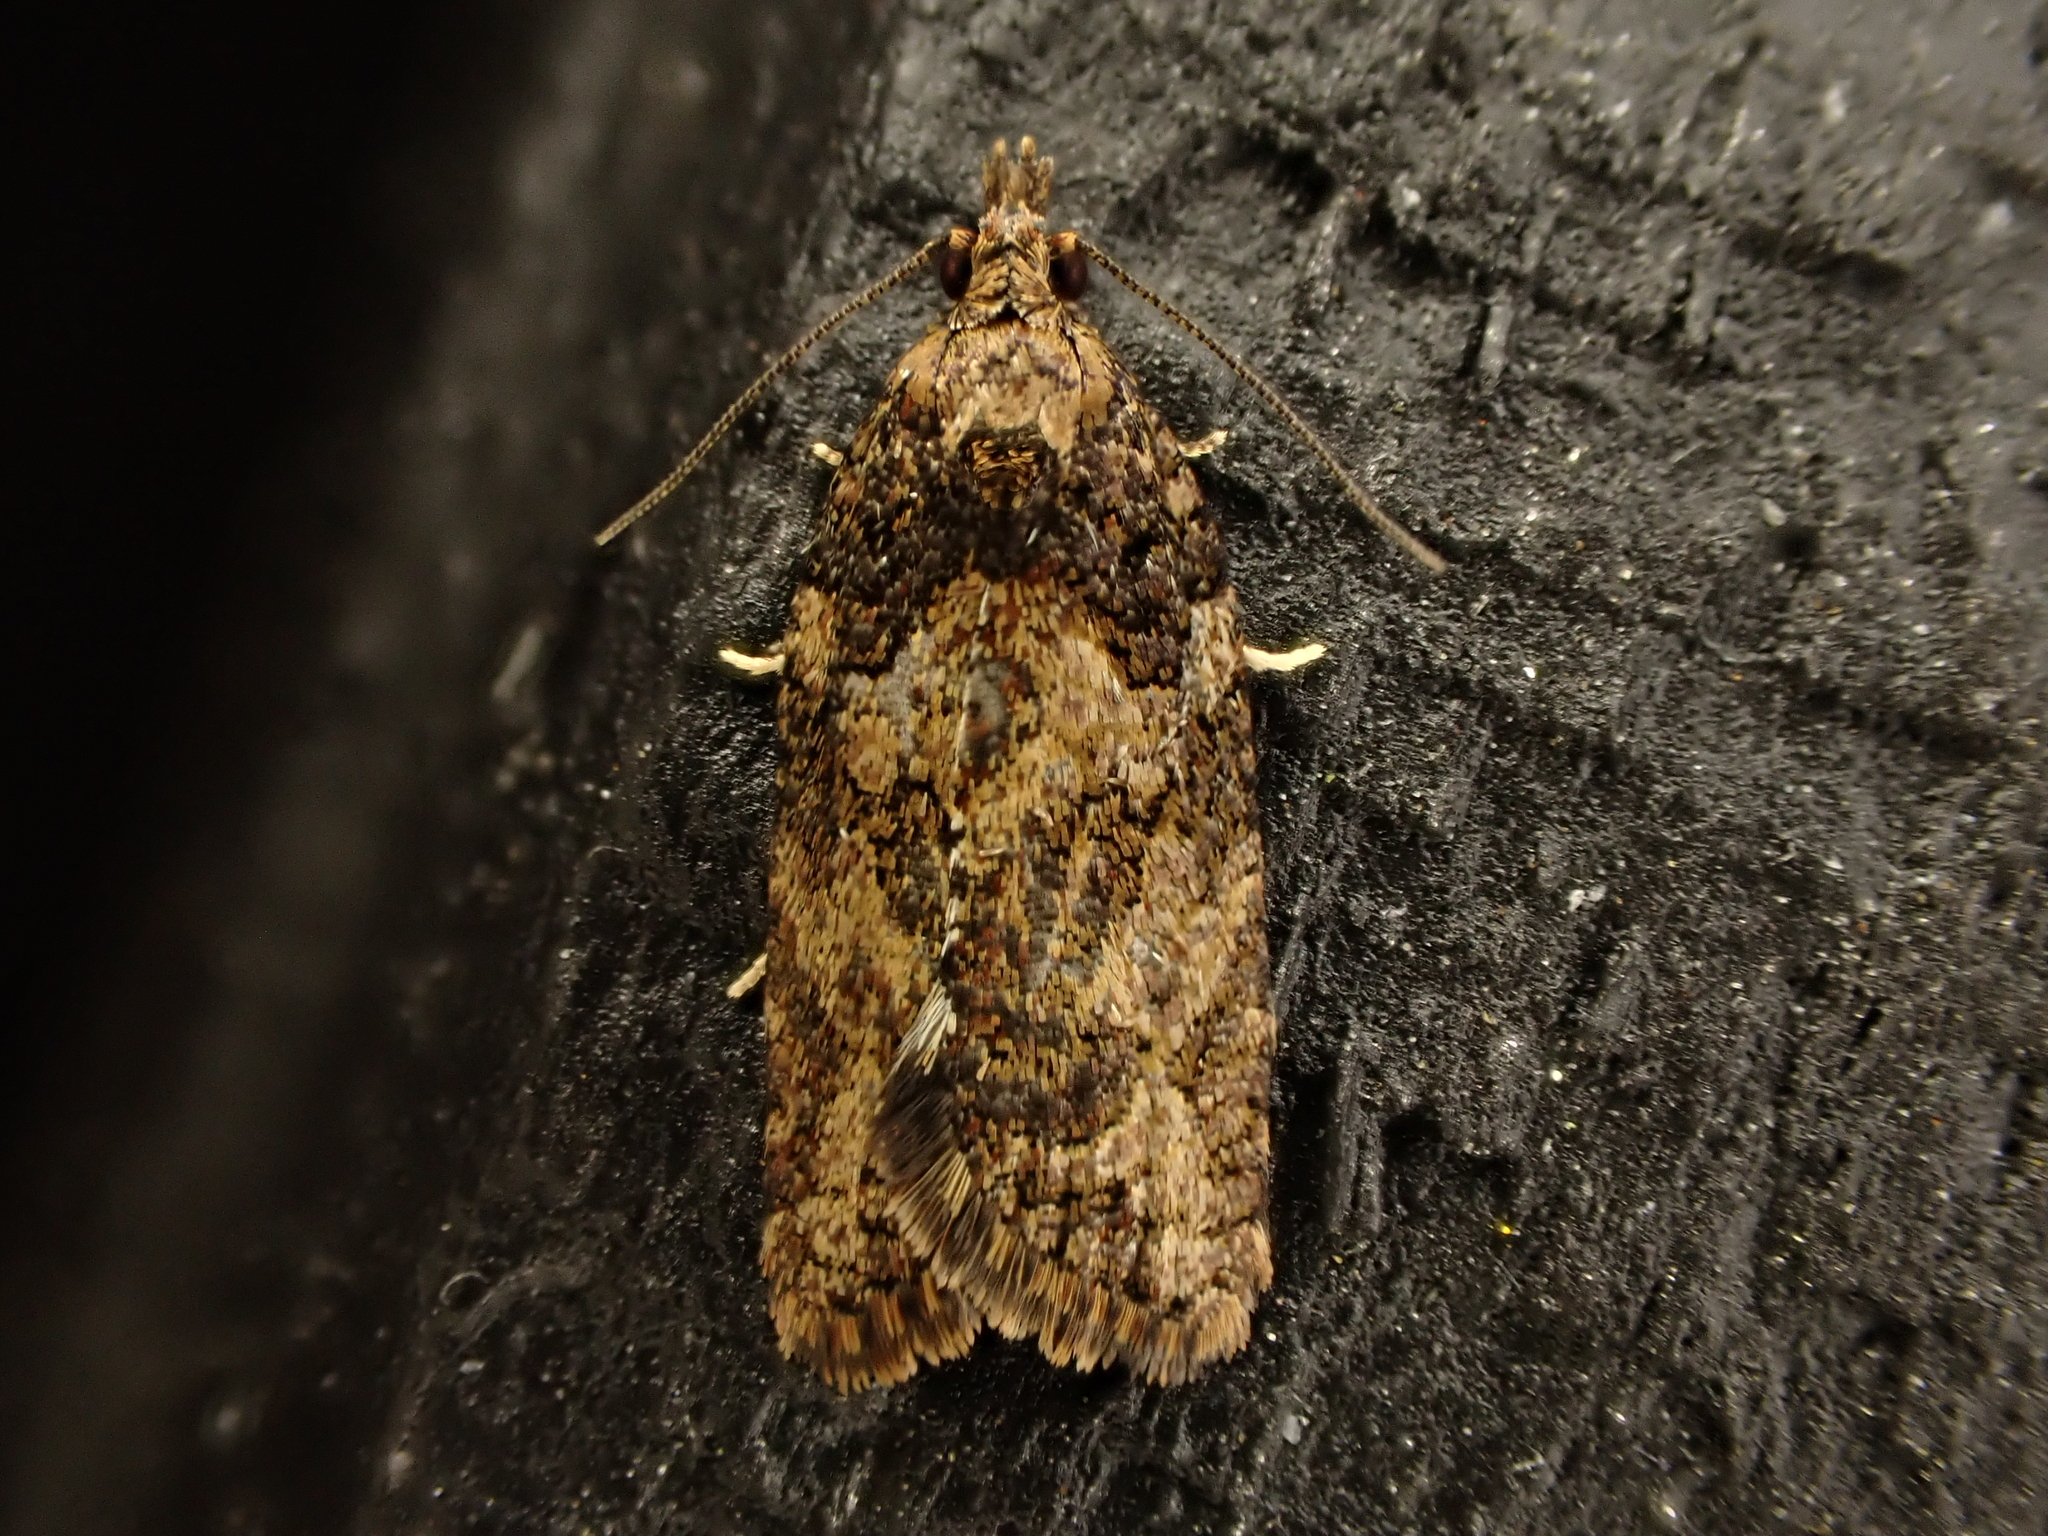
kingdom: Animalia
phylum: Arthropoda
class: Insecta
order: Lepidoptera
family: Tortricidae
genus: Capua
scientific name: Capua intractana
